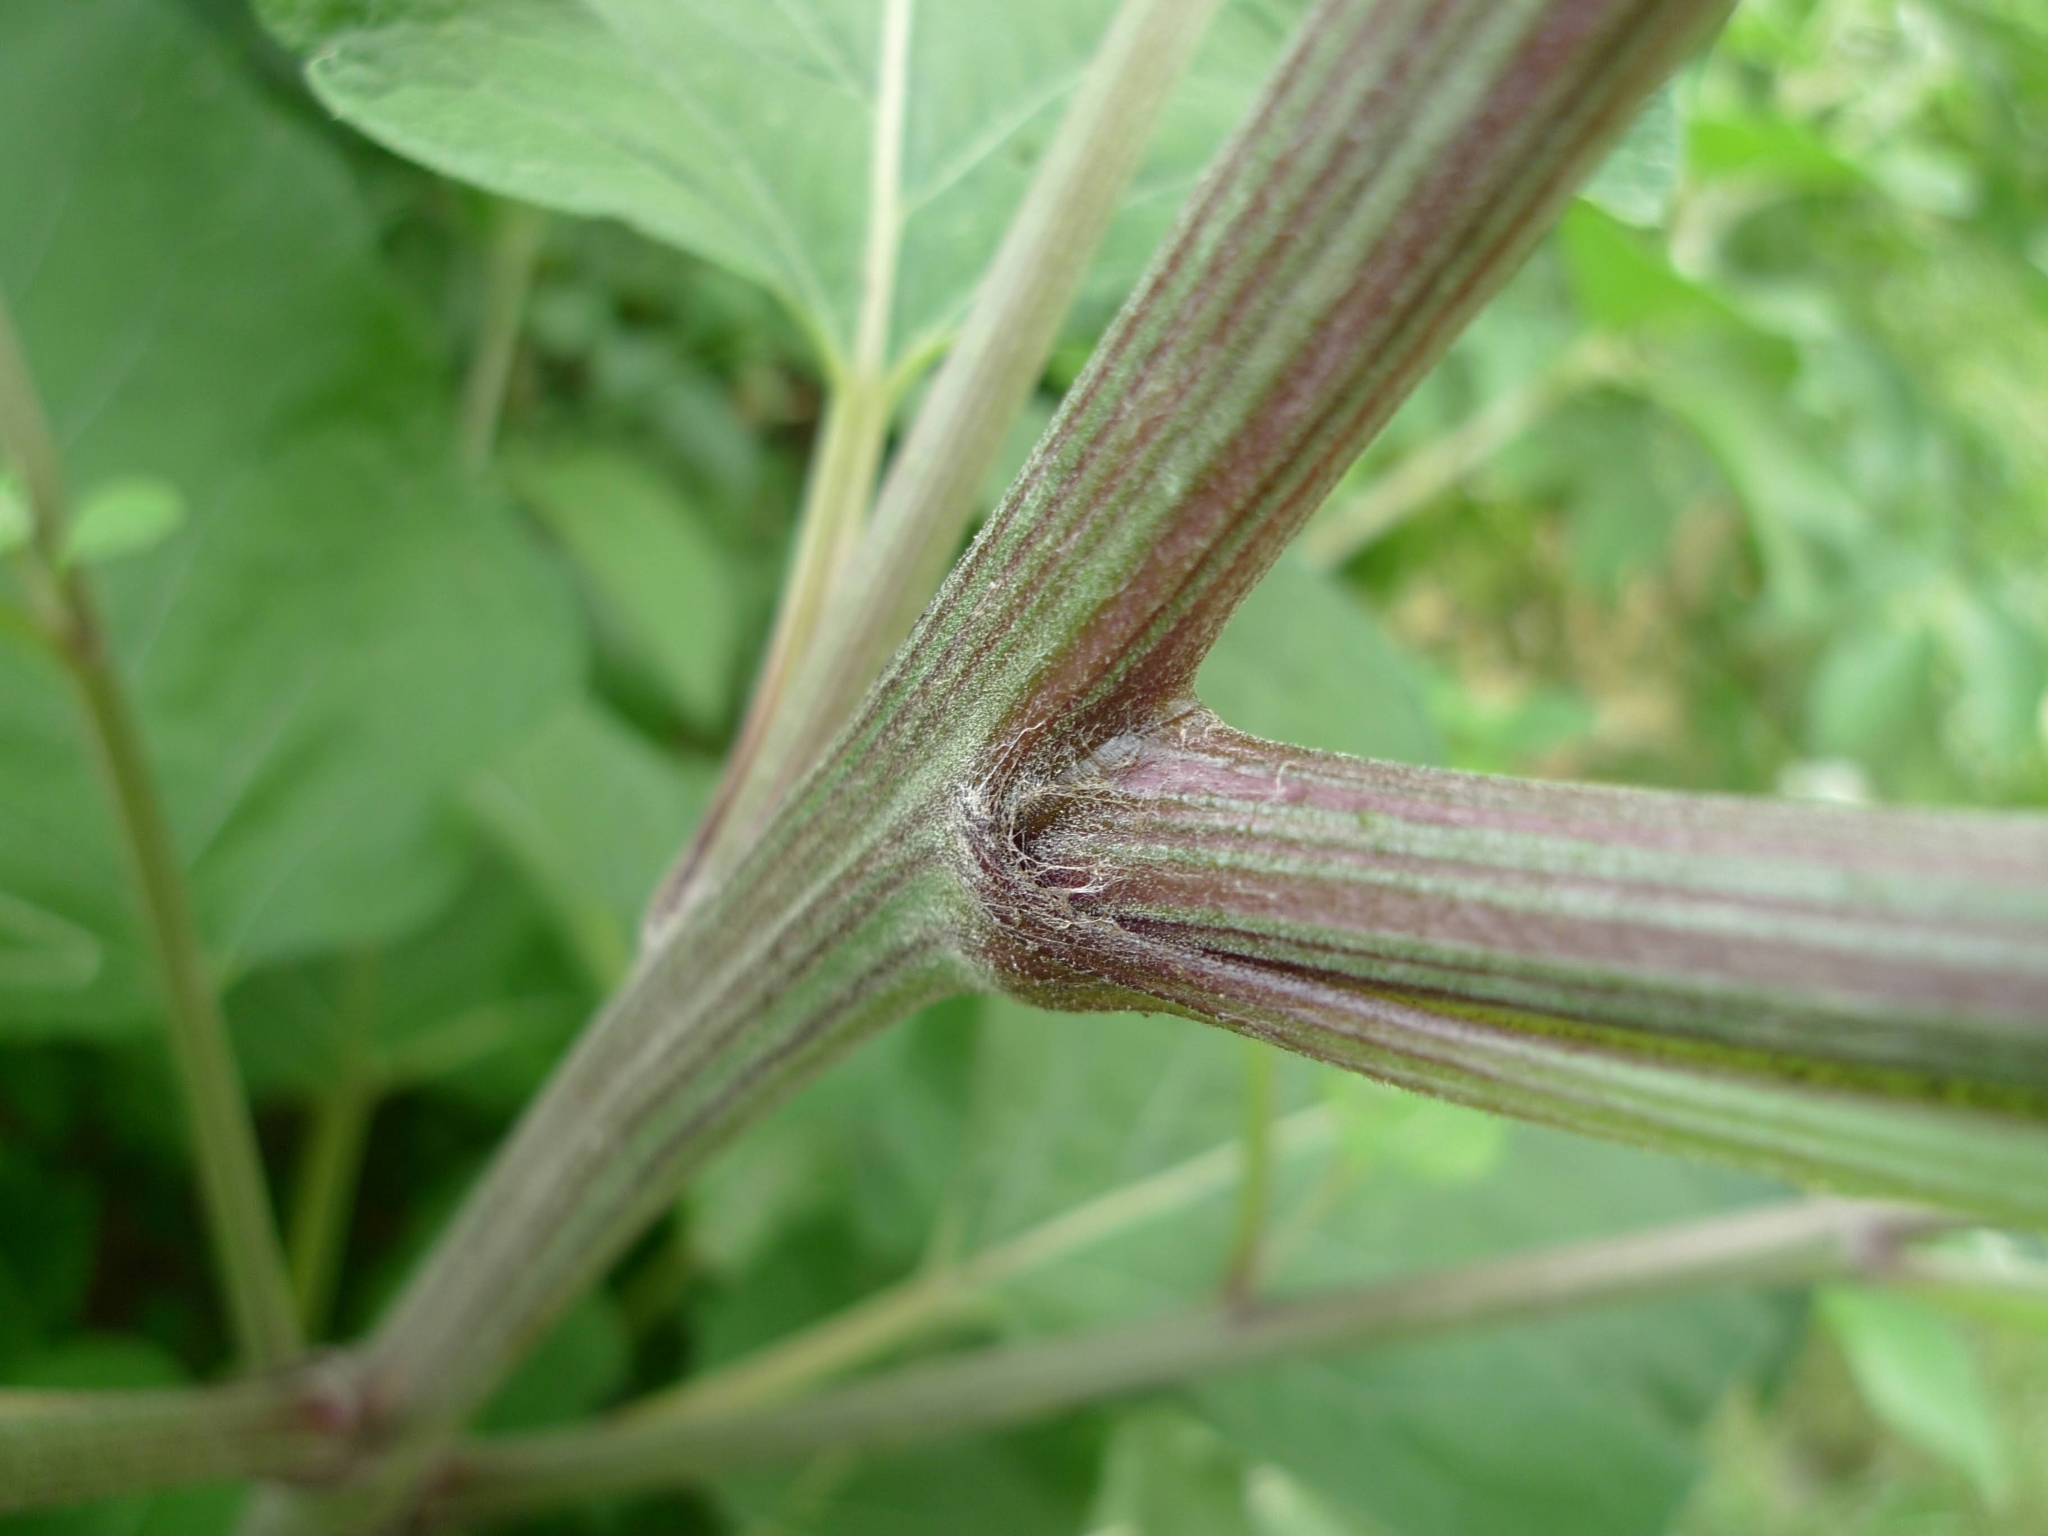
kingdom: Plantae
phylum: Tracheophyta
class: Magnoliopsida
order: Asterales
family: Asteraceae
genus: Arctium
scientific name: Arctium tomentosum
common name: Woolly burdock
